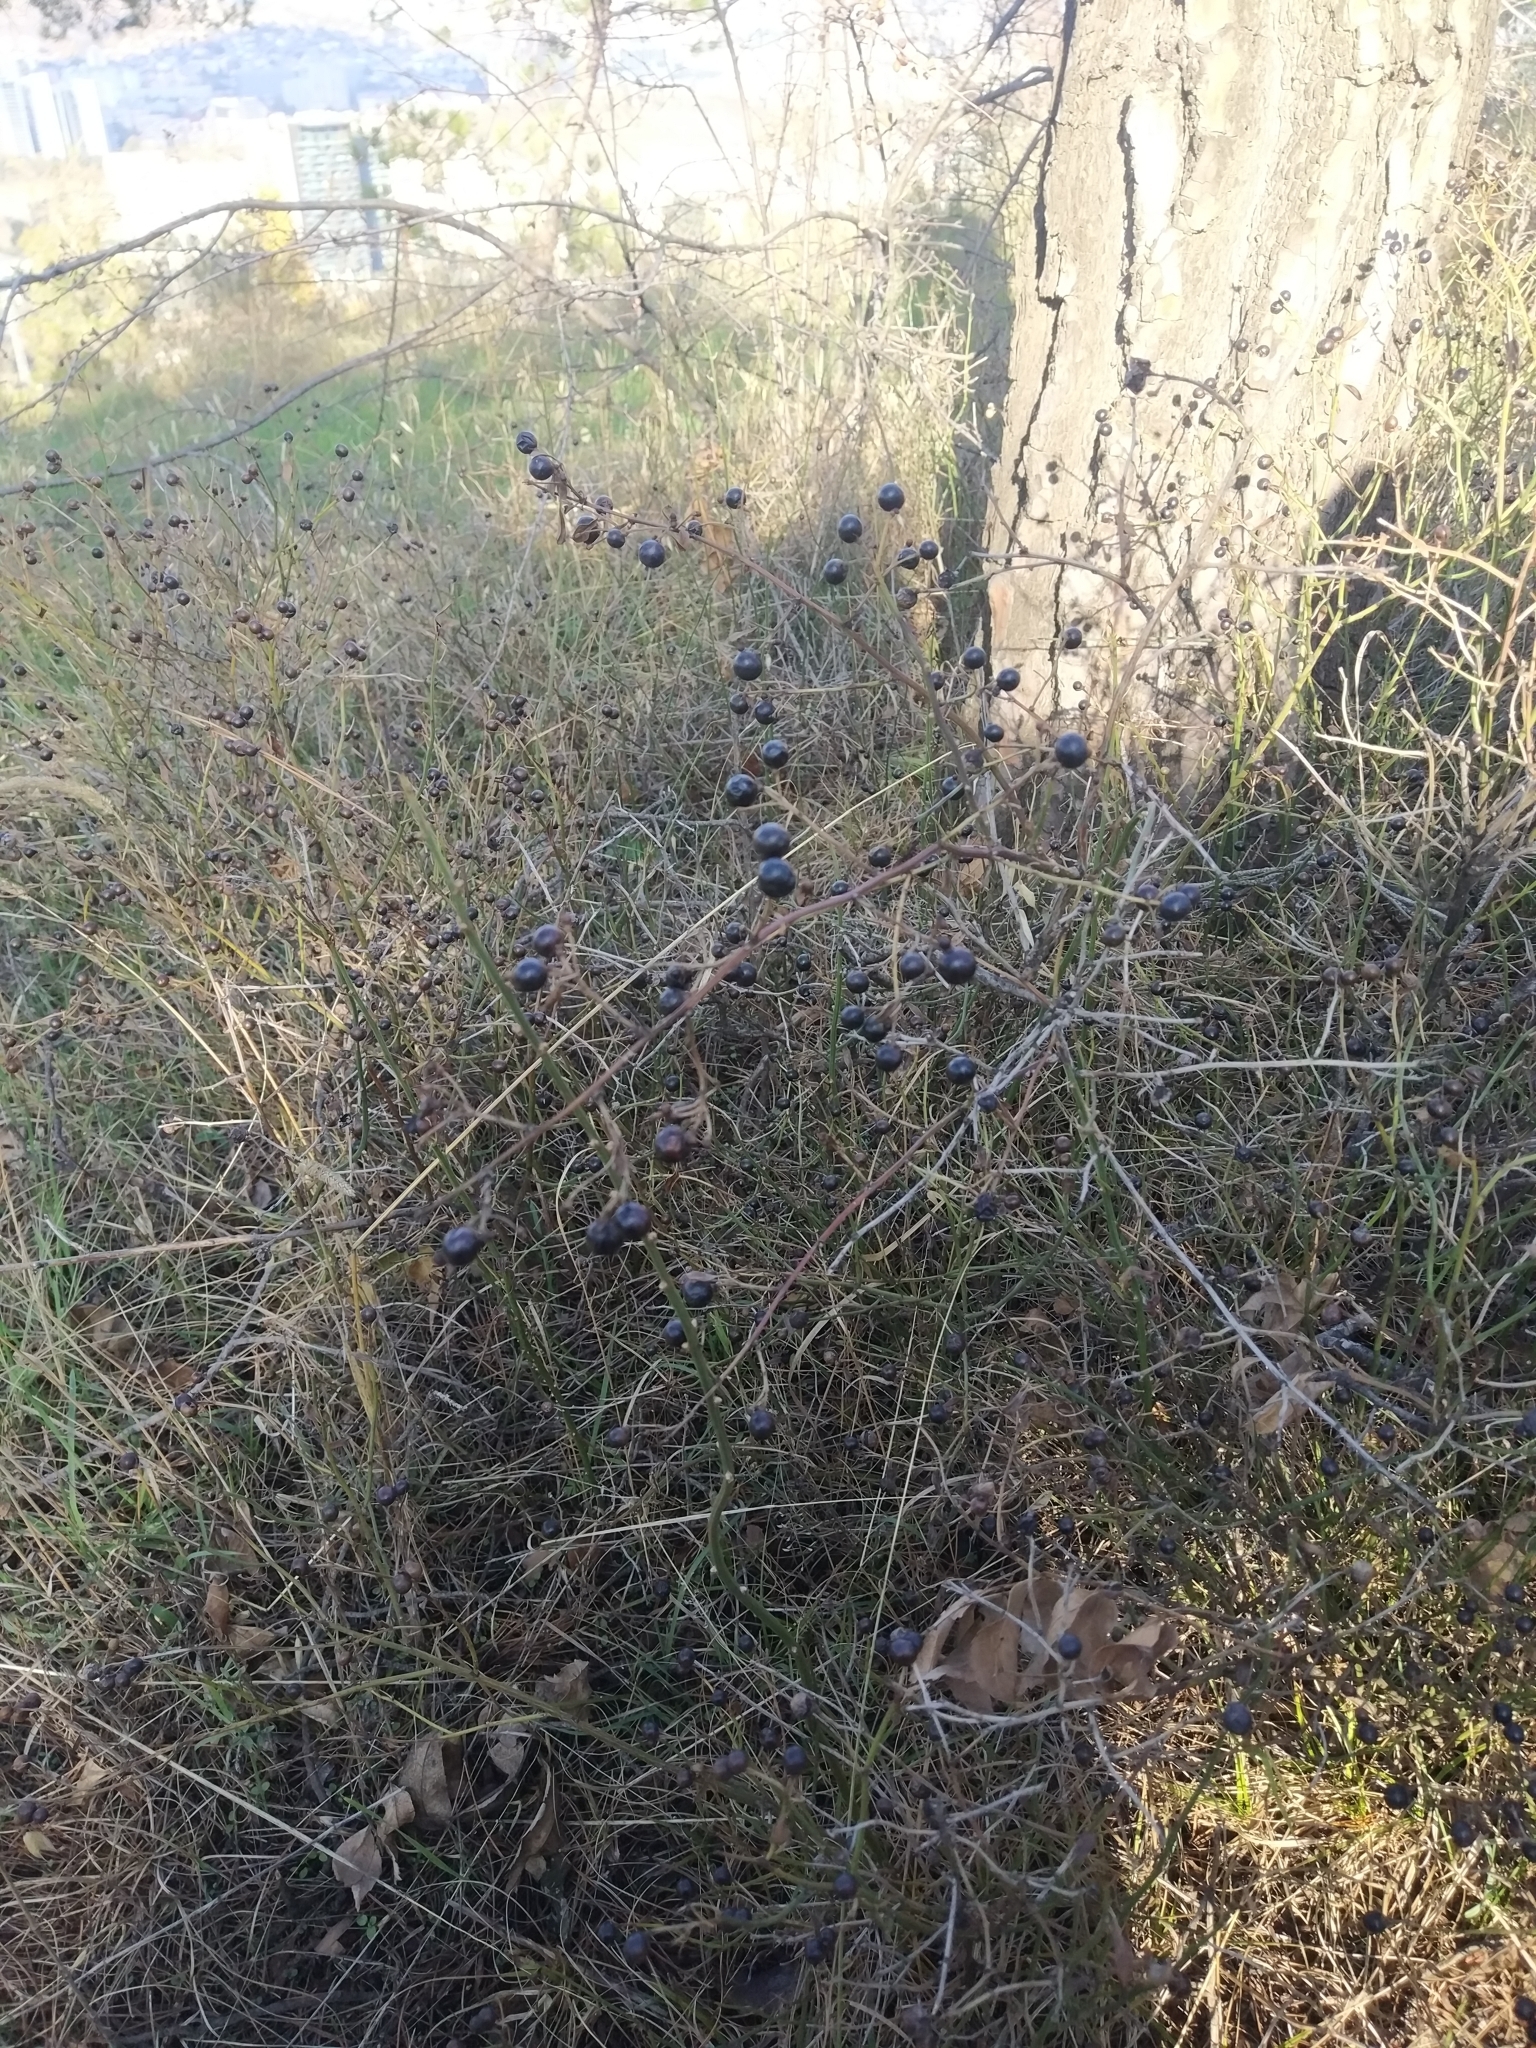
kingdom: Plantae
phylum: Tracheophyta
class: Magnoliopsida
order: Lamiales
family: Oleaceae
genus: Chrysojasminum
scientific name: Chrysojasminum fruticans
